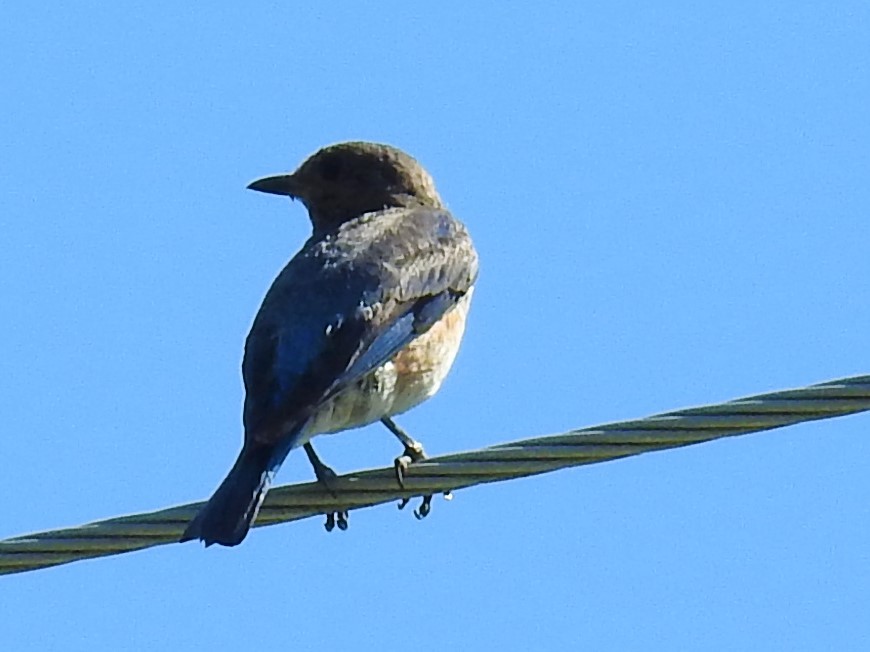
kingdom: Animalia
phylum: Chordata
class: Aves
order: Passeriformes
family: Turdidae
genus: Sialia
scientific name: Sialia sialis
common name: Eastern bluebird
